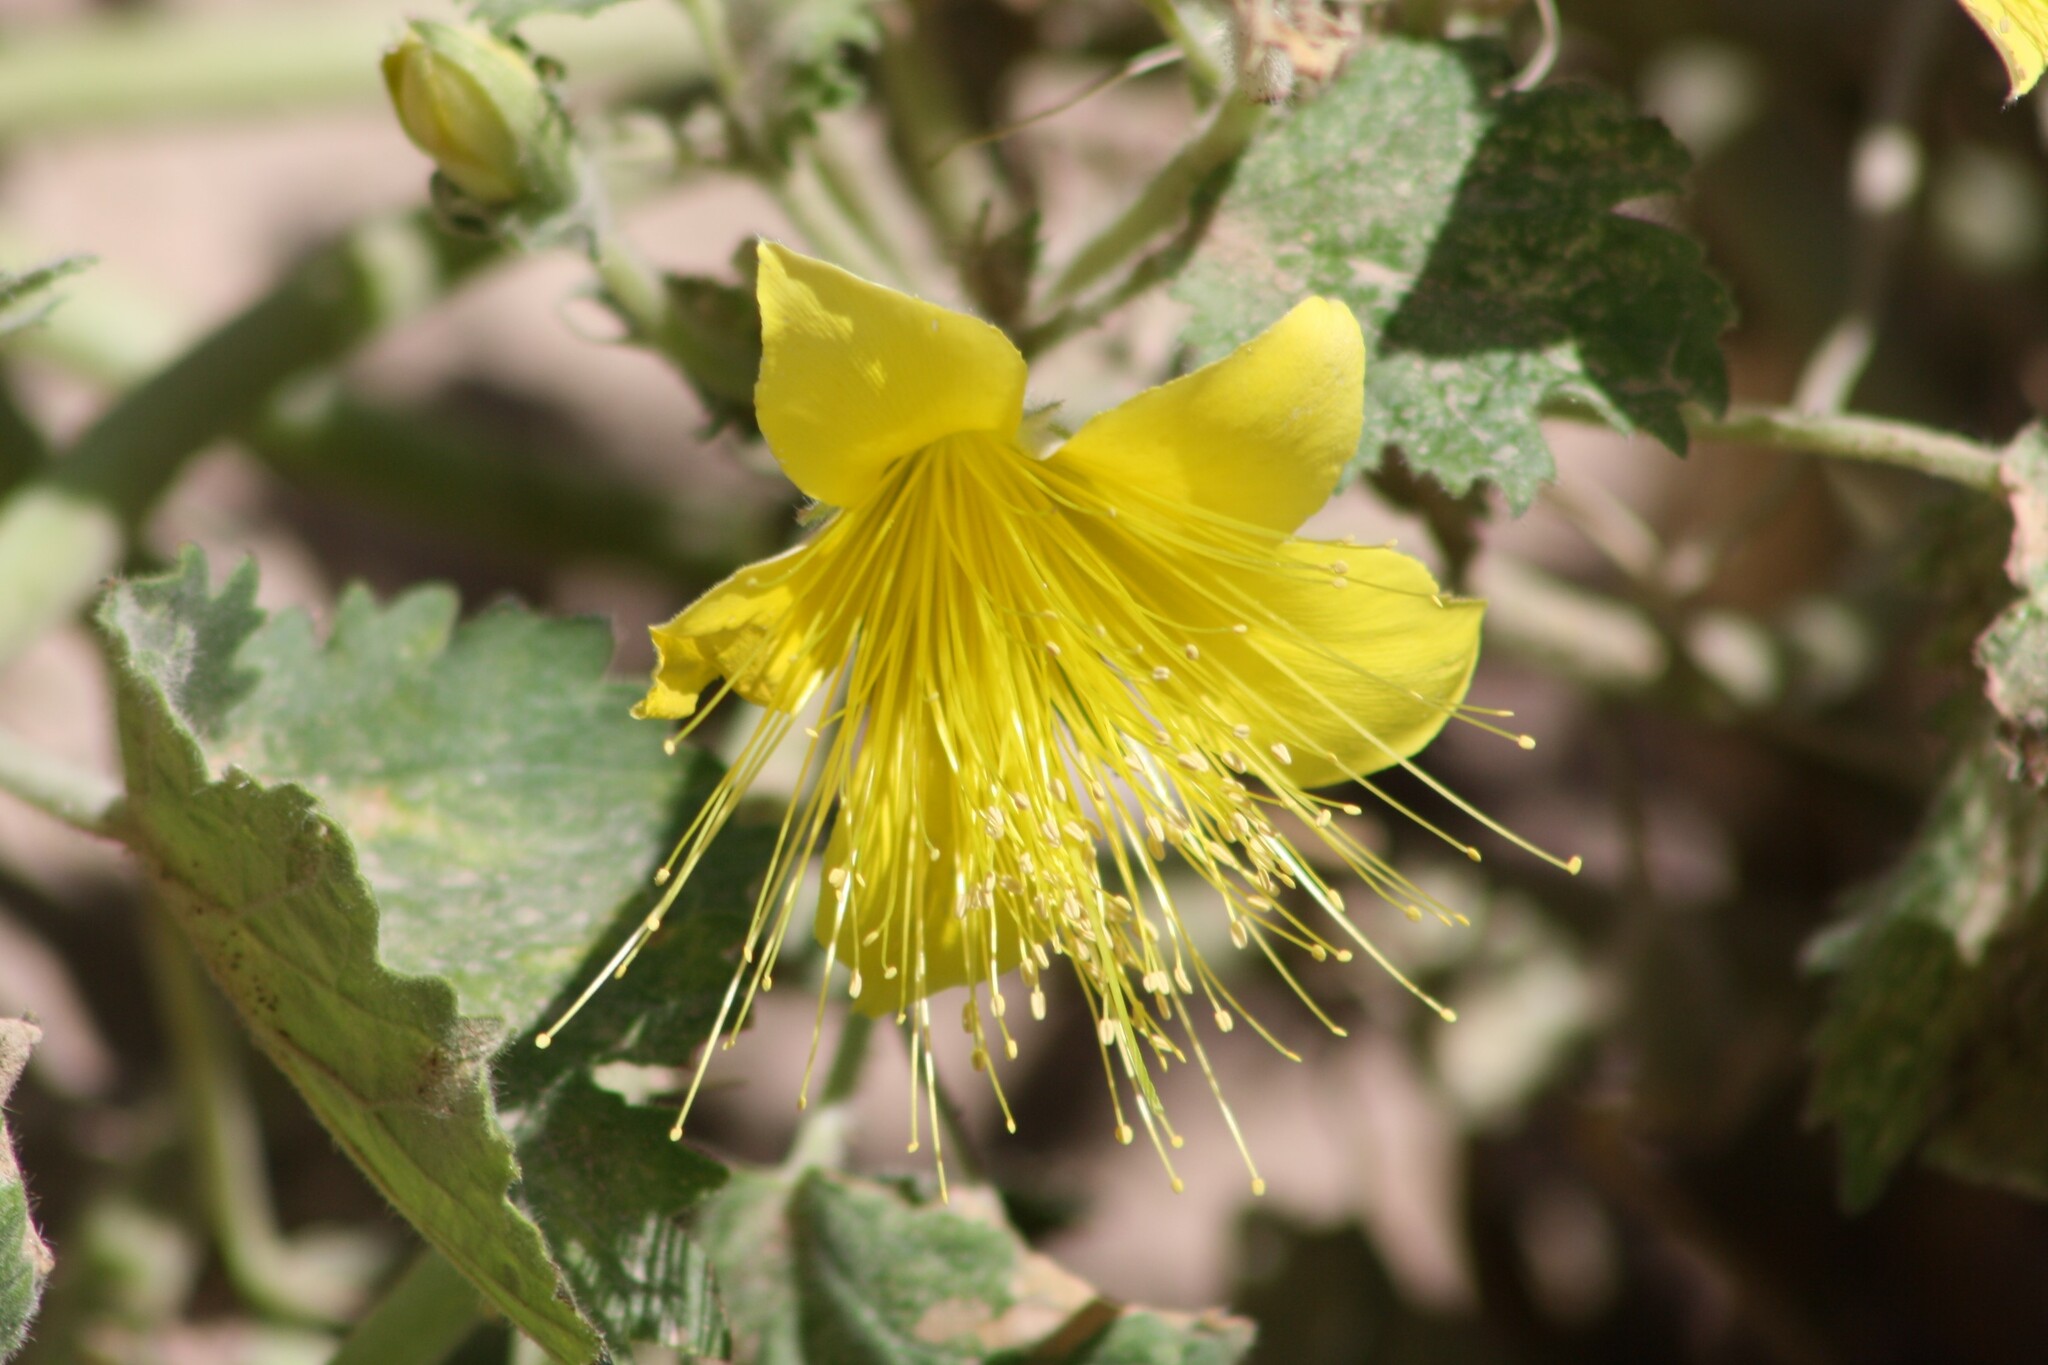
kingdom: Plantae
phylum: Tracheophyta
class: Magnoliopsida
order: Cornales
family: Loasaceae
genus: Eucnide
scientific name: Eucnide bartonioides
